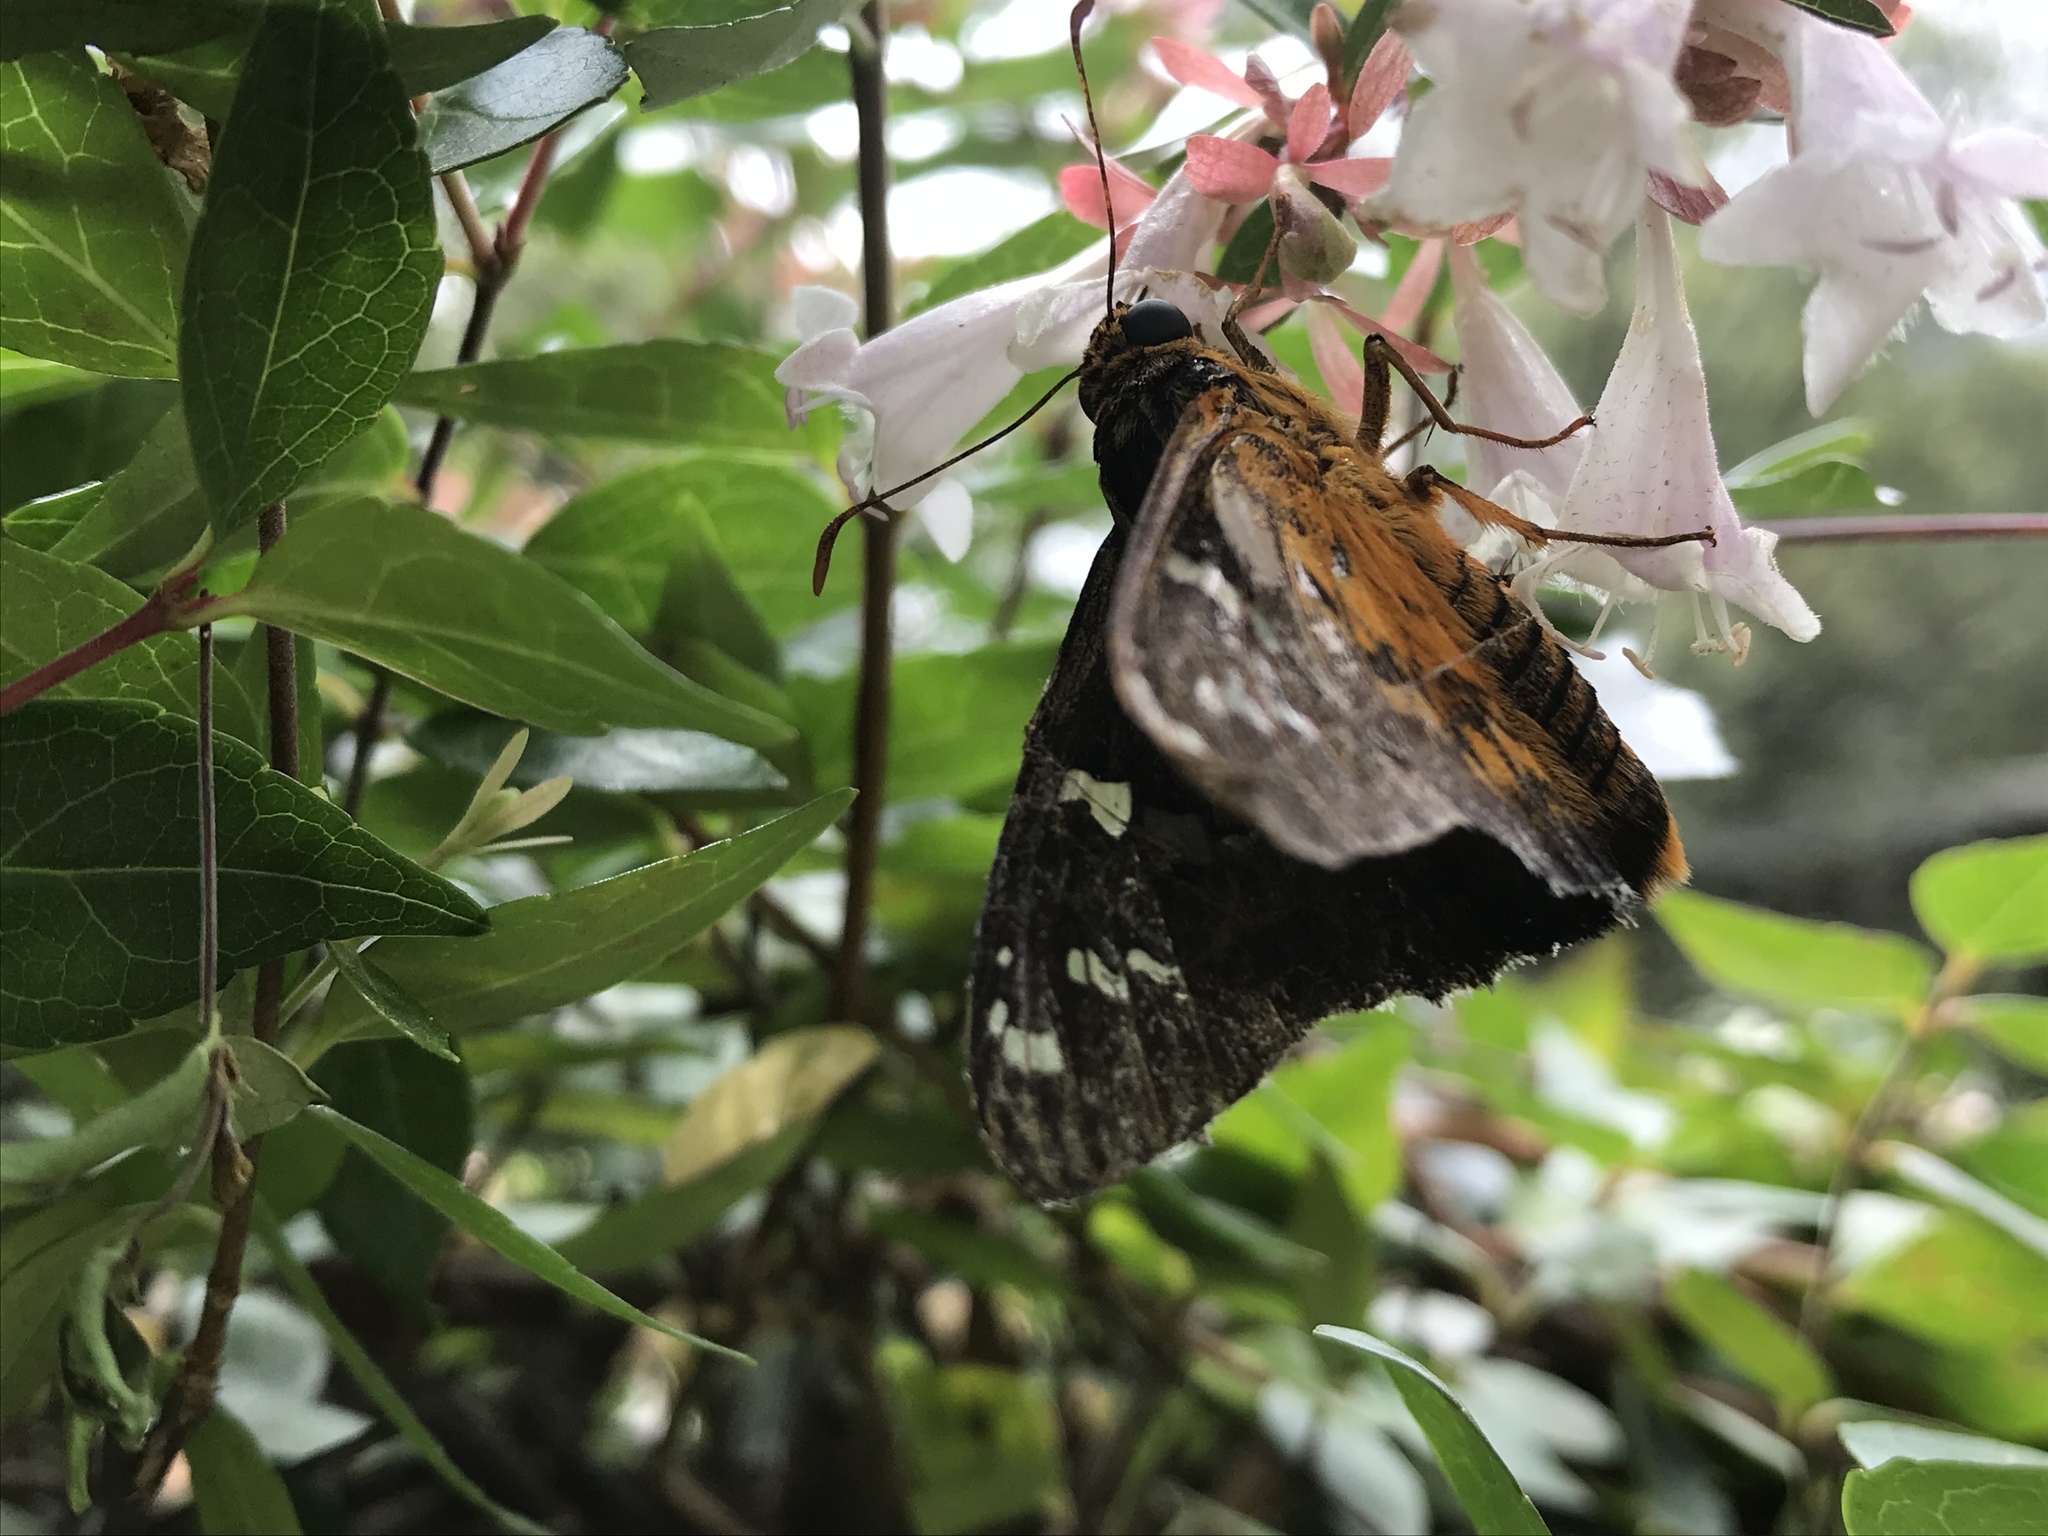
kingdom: Animalia
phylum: Arthropoda
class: Insecta
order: Lepidoptera
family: Hesperiidae
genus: Pyrrhopyge
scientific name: Pyrrhopyge araxes
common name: Dull firetip
